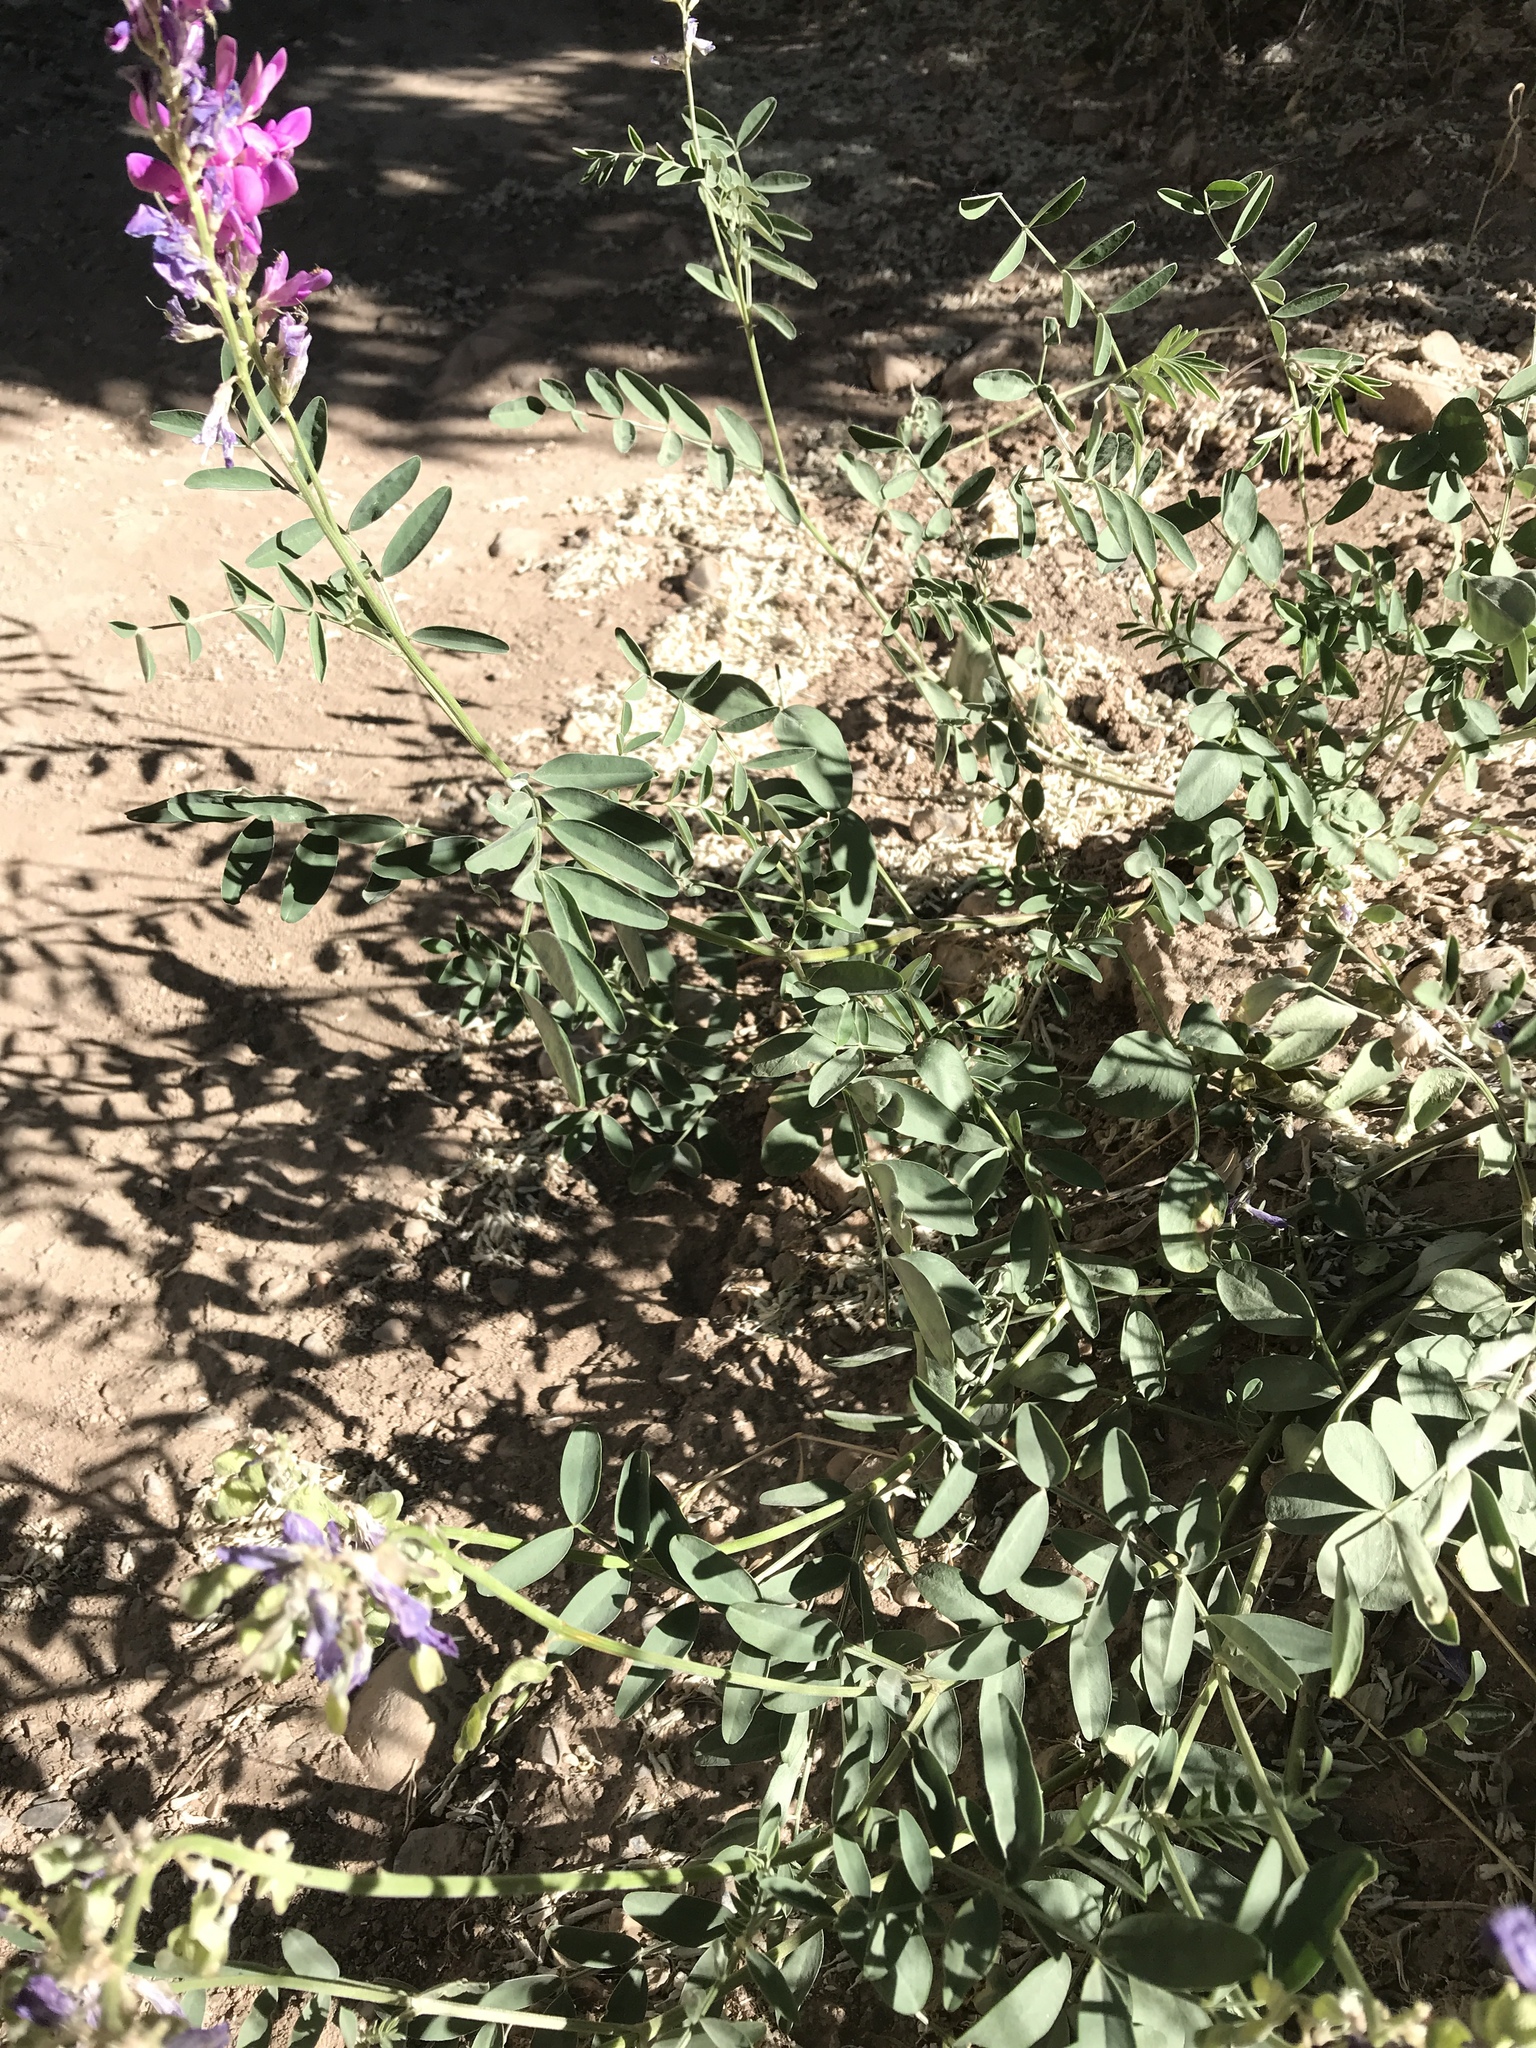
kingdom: Plantae
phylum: Tracheophyta
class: Magnoliopsida
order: Fabales
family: Fabaceae
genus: Hedysarum
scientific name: Hedysarum boreale
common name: Northern sweet-vetch
